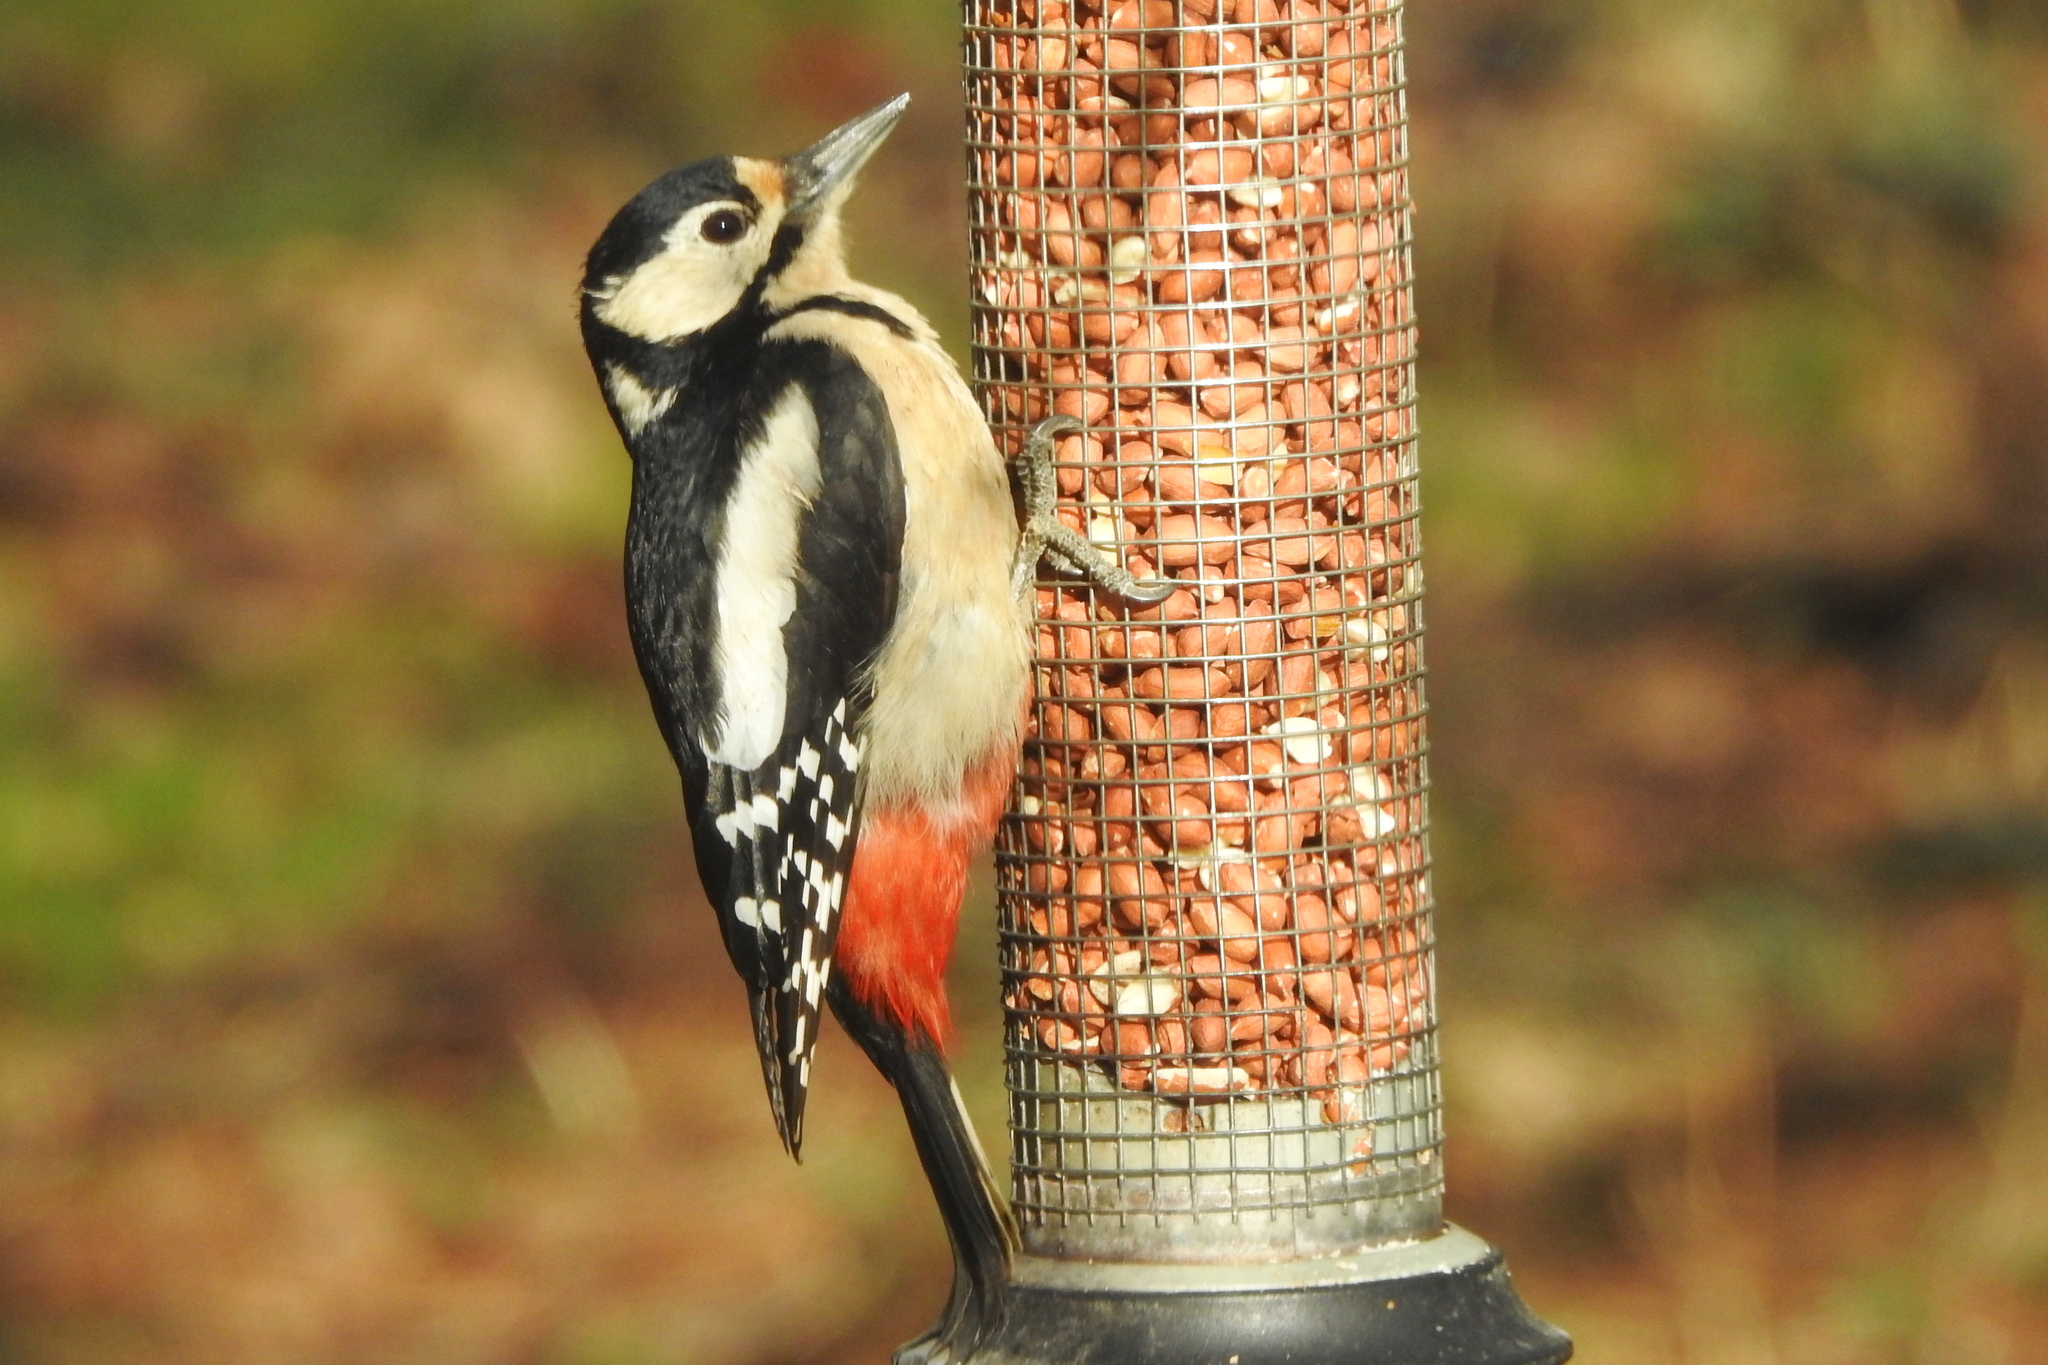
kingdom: Animalia
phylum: Chordata
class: Aves
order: Piciformes
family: Picidae
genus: Dendrocopos
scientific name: Dendrocopos major
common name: Great spotted woodpecker
